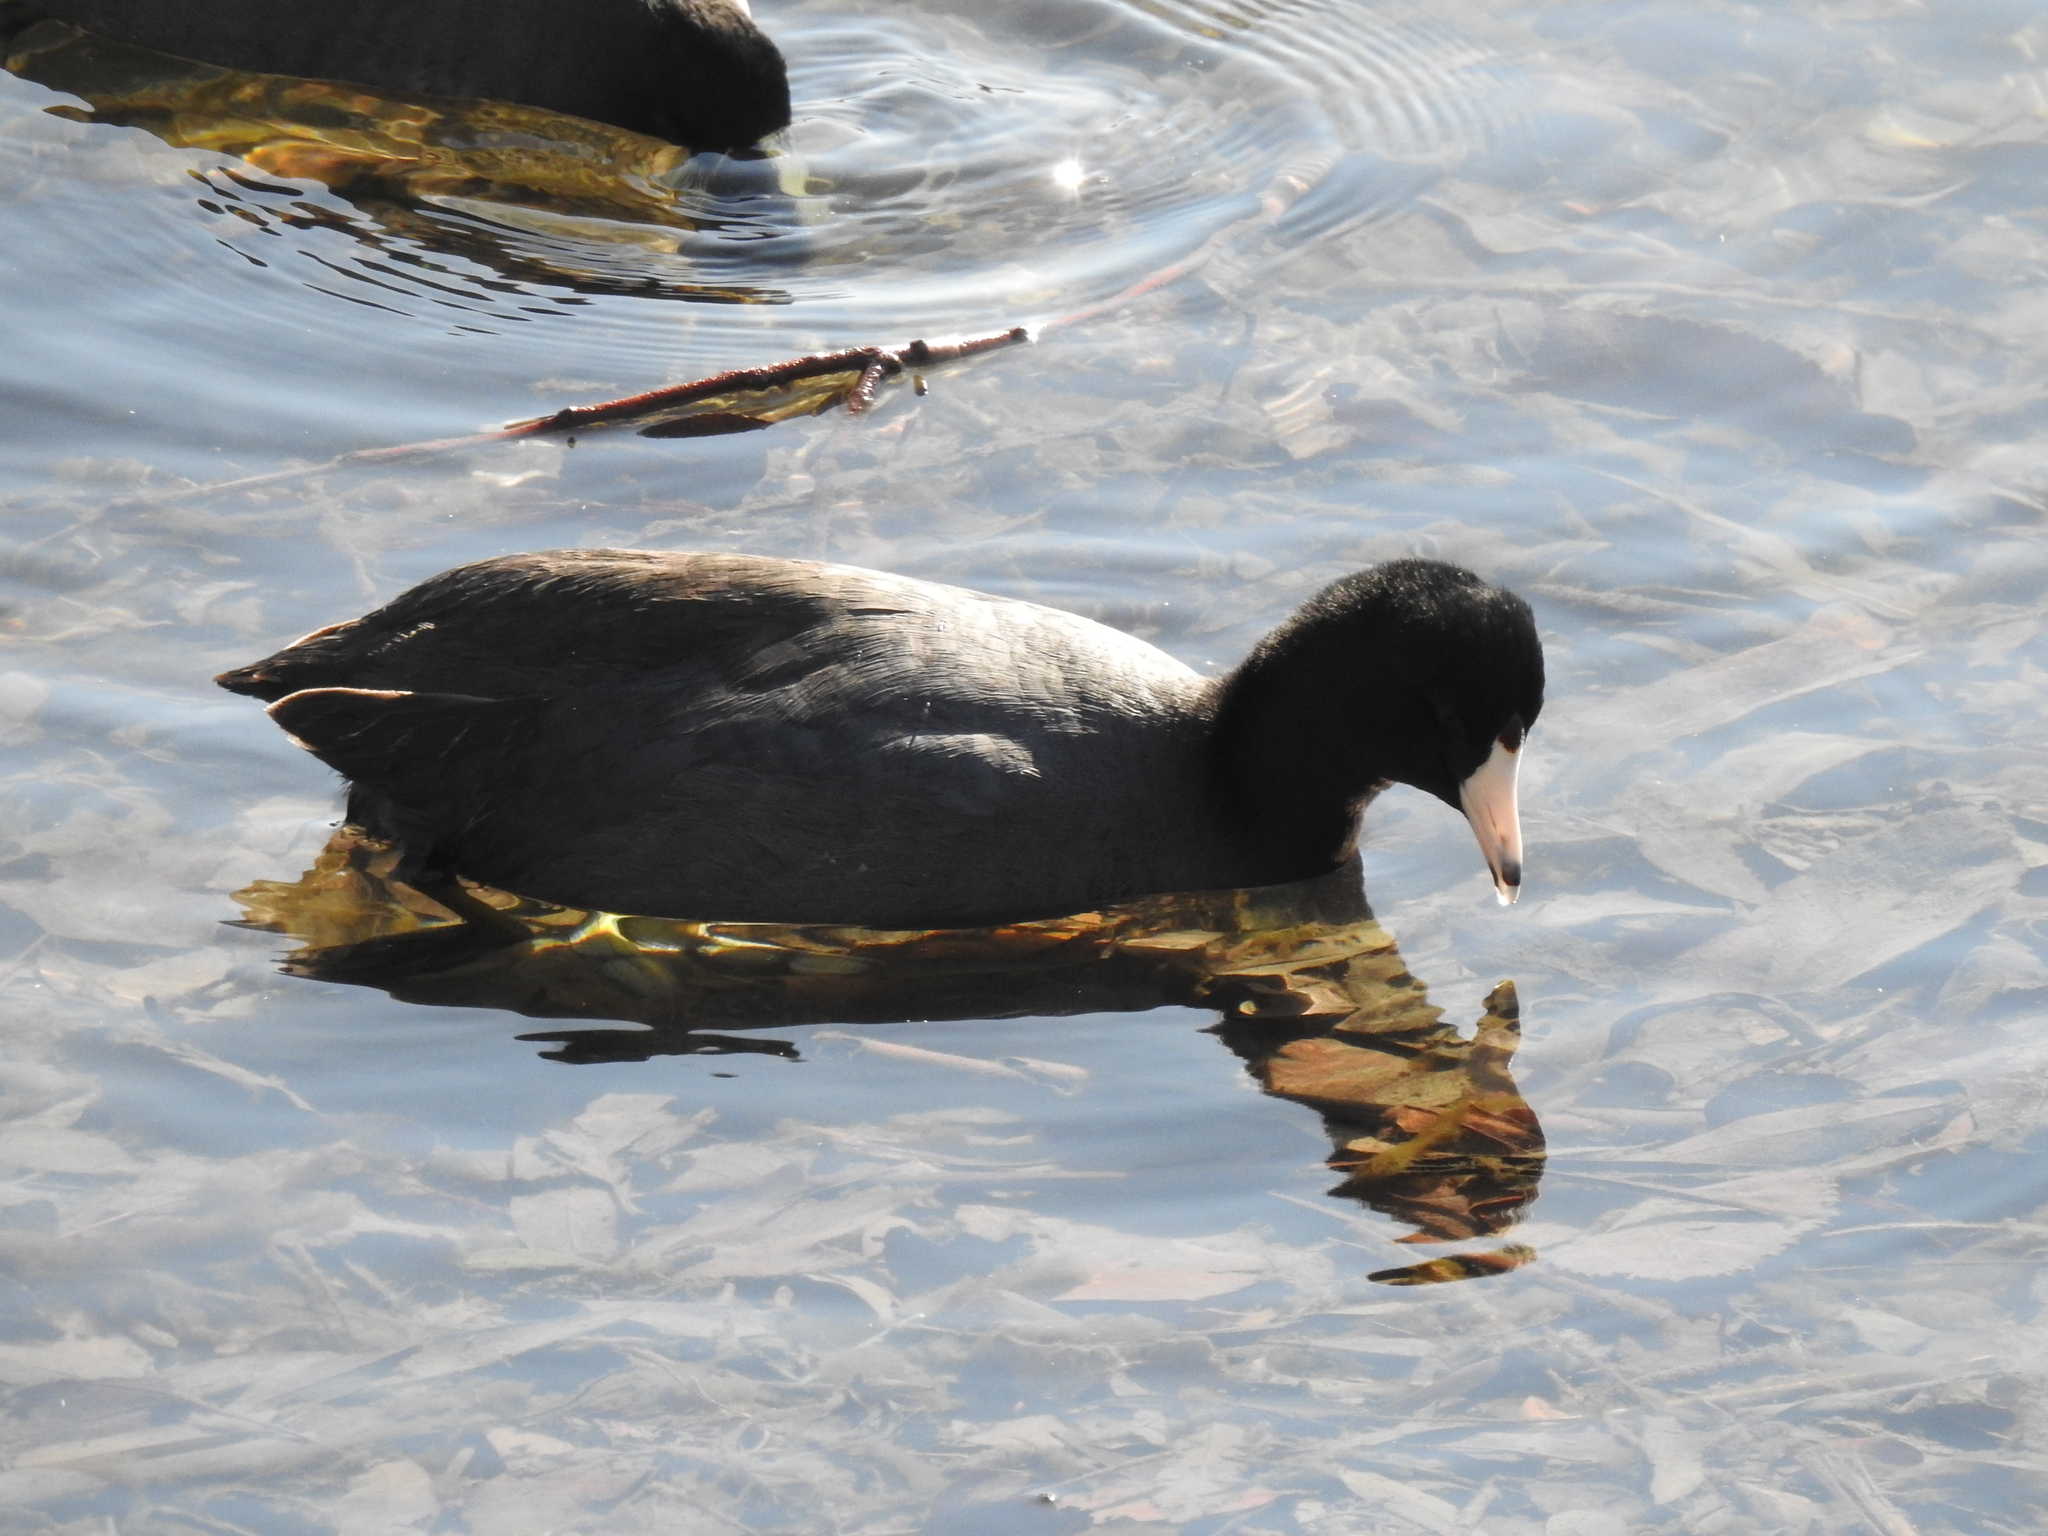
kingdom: Animalia
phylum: Chordata
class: Aves
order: Gruiformes
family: Rallidae
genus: Fulica
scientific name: Fulica americana
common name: American coot
